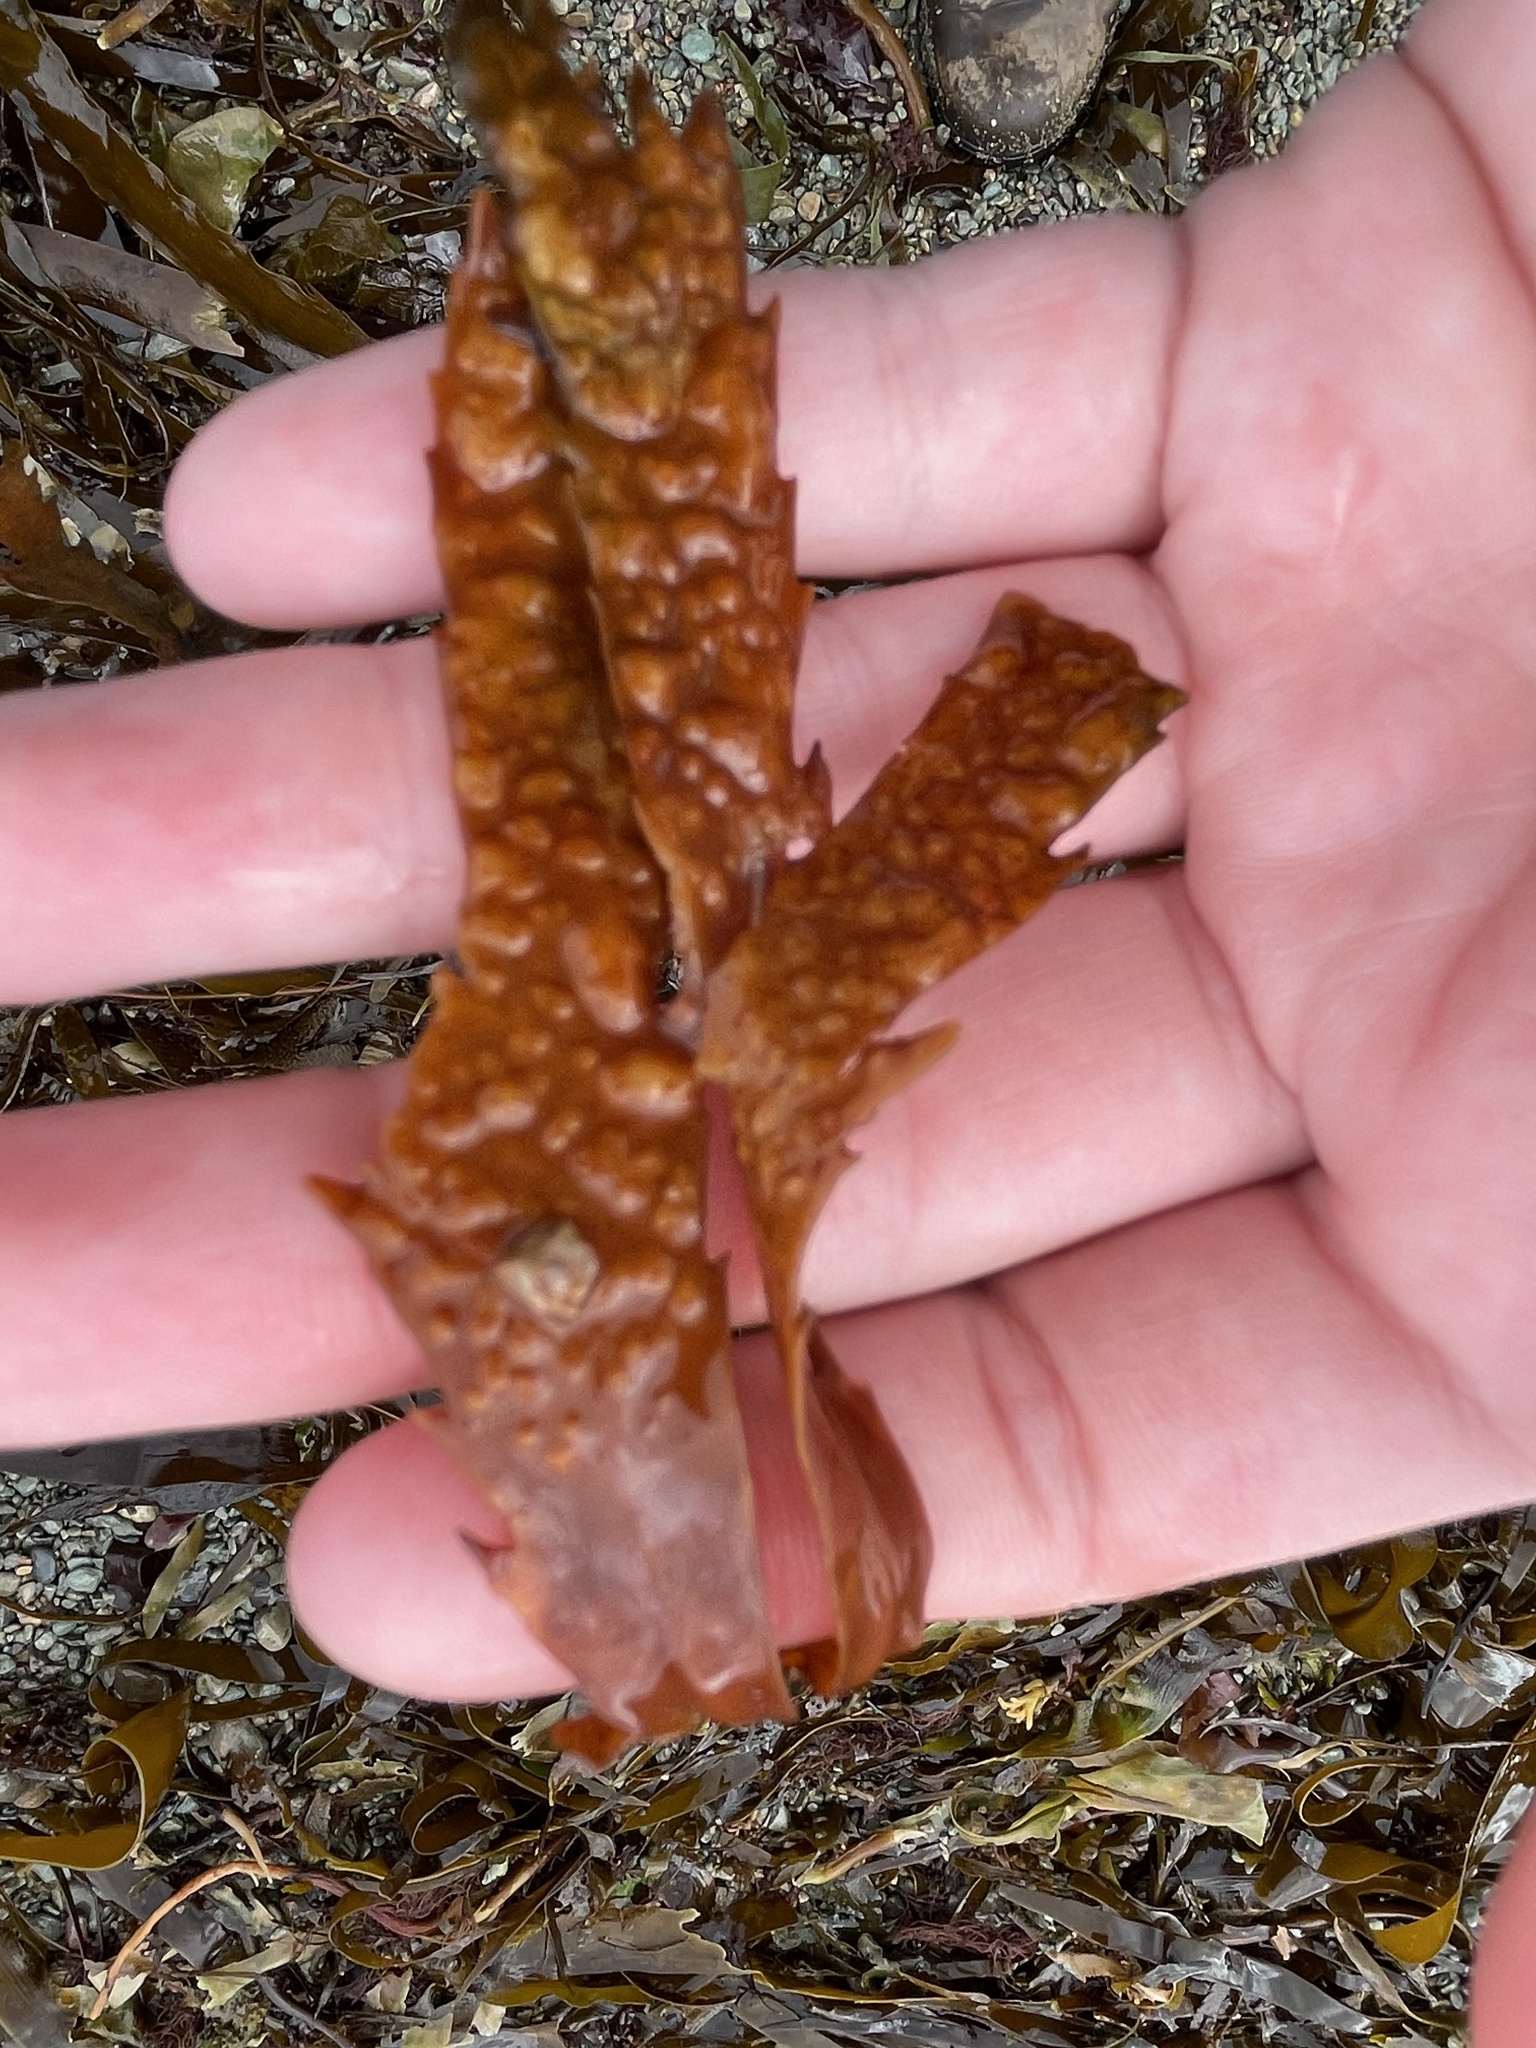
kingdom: Chromista
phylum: Ochrophyta
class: Phaeophyceae
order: Fucales
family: Fucaceae
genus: Fucus
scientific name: Fucus serratus
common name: Toothed wrack
